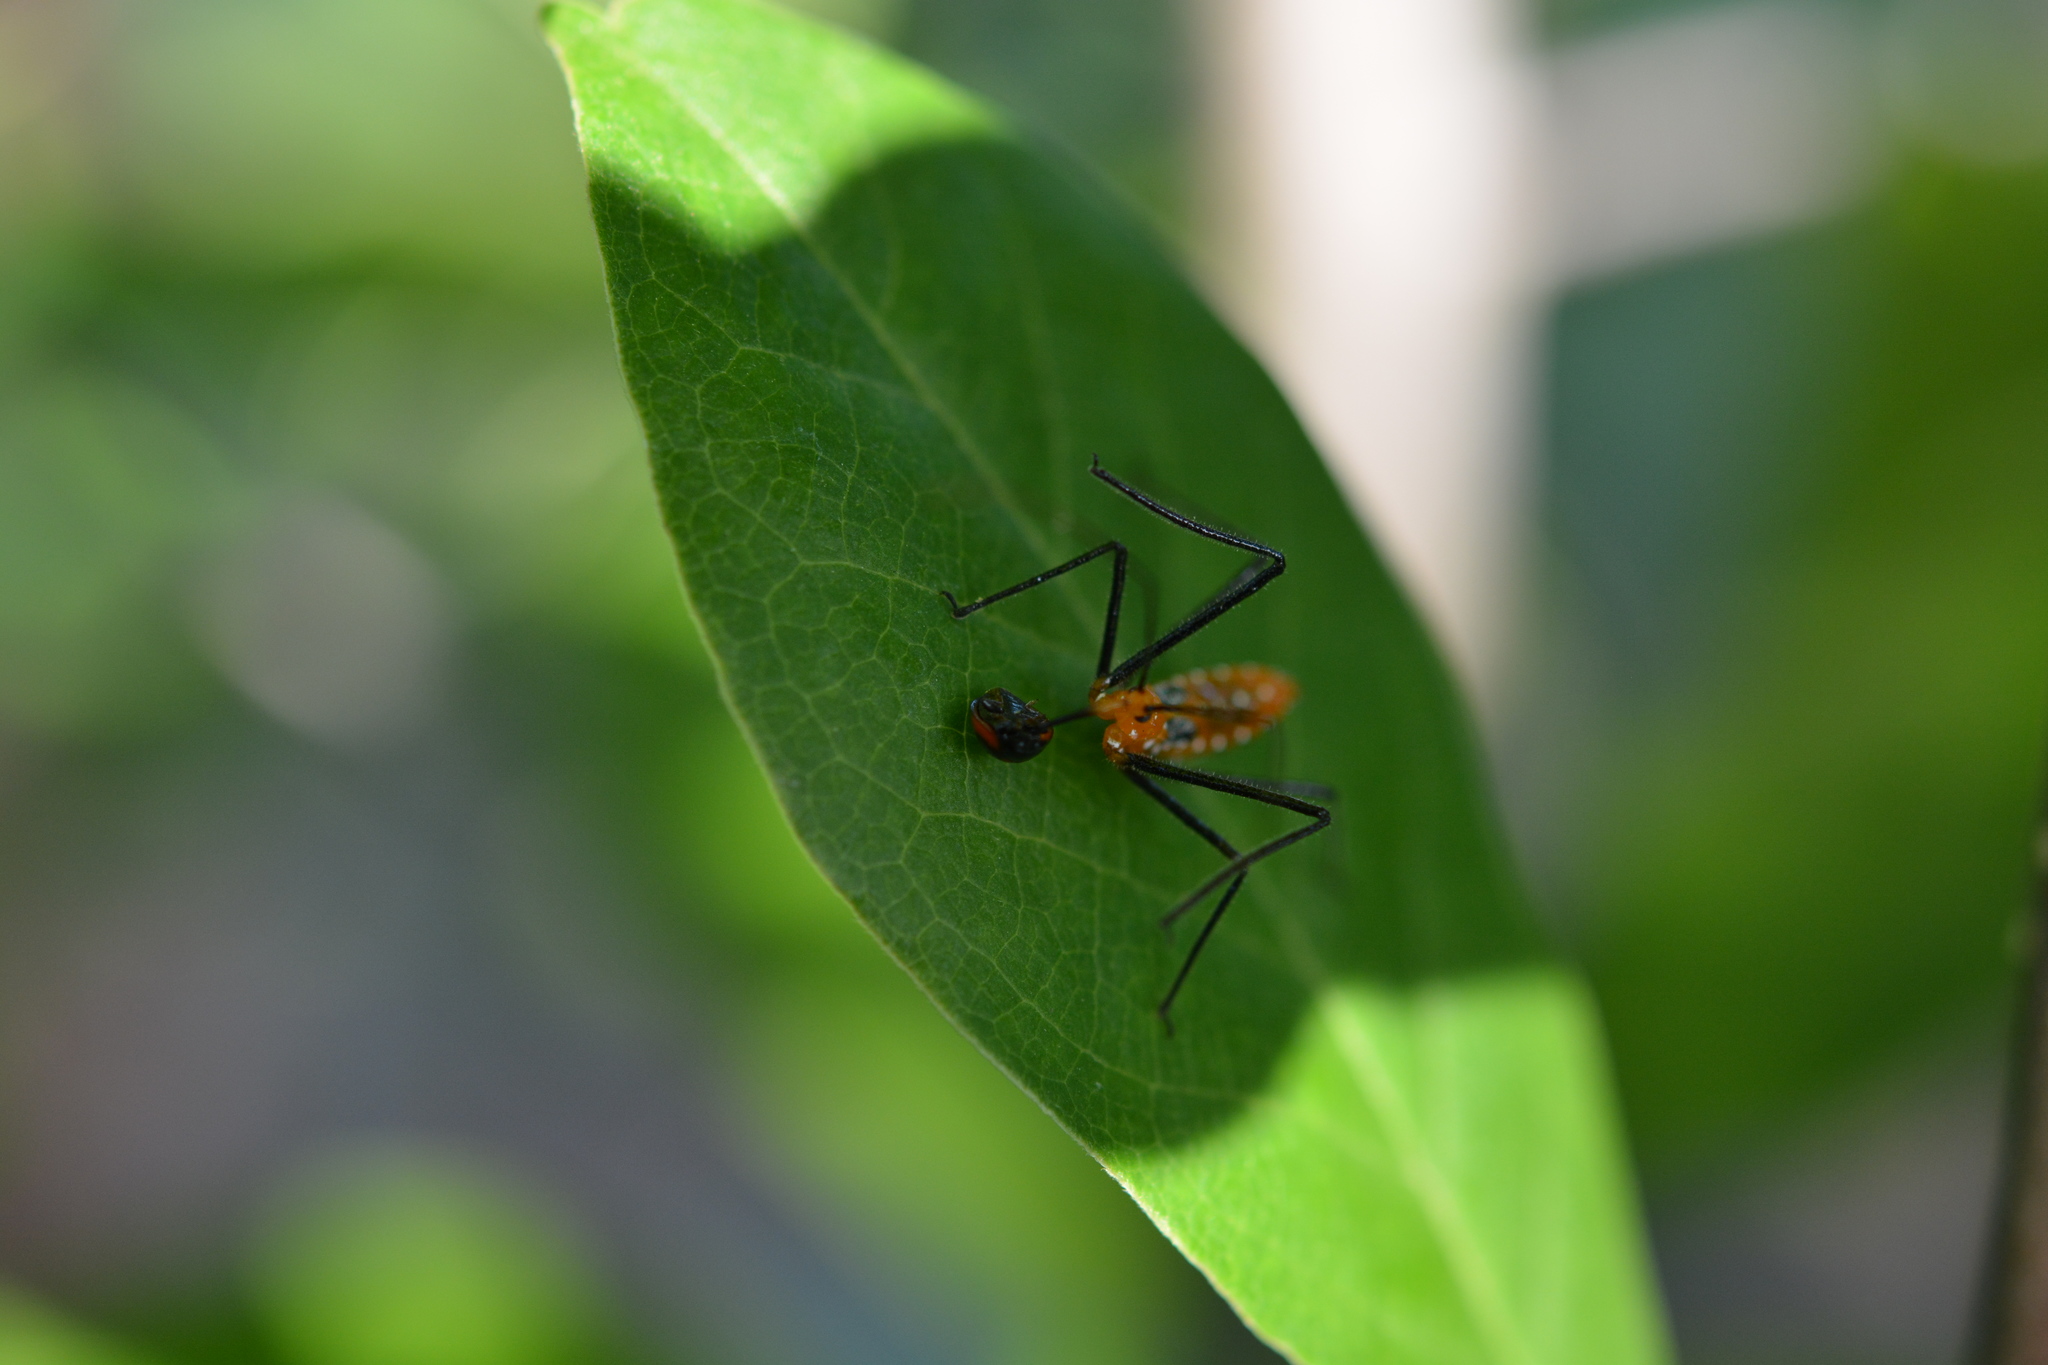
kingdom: Animalia
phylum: Arthropoda
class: Insecta
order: Hemiptera
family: Reduviidae
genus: Zelus
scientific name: Zelus longipes
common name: Milkweed assassin bug
